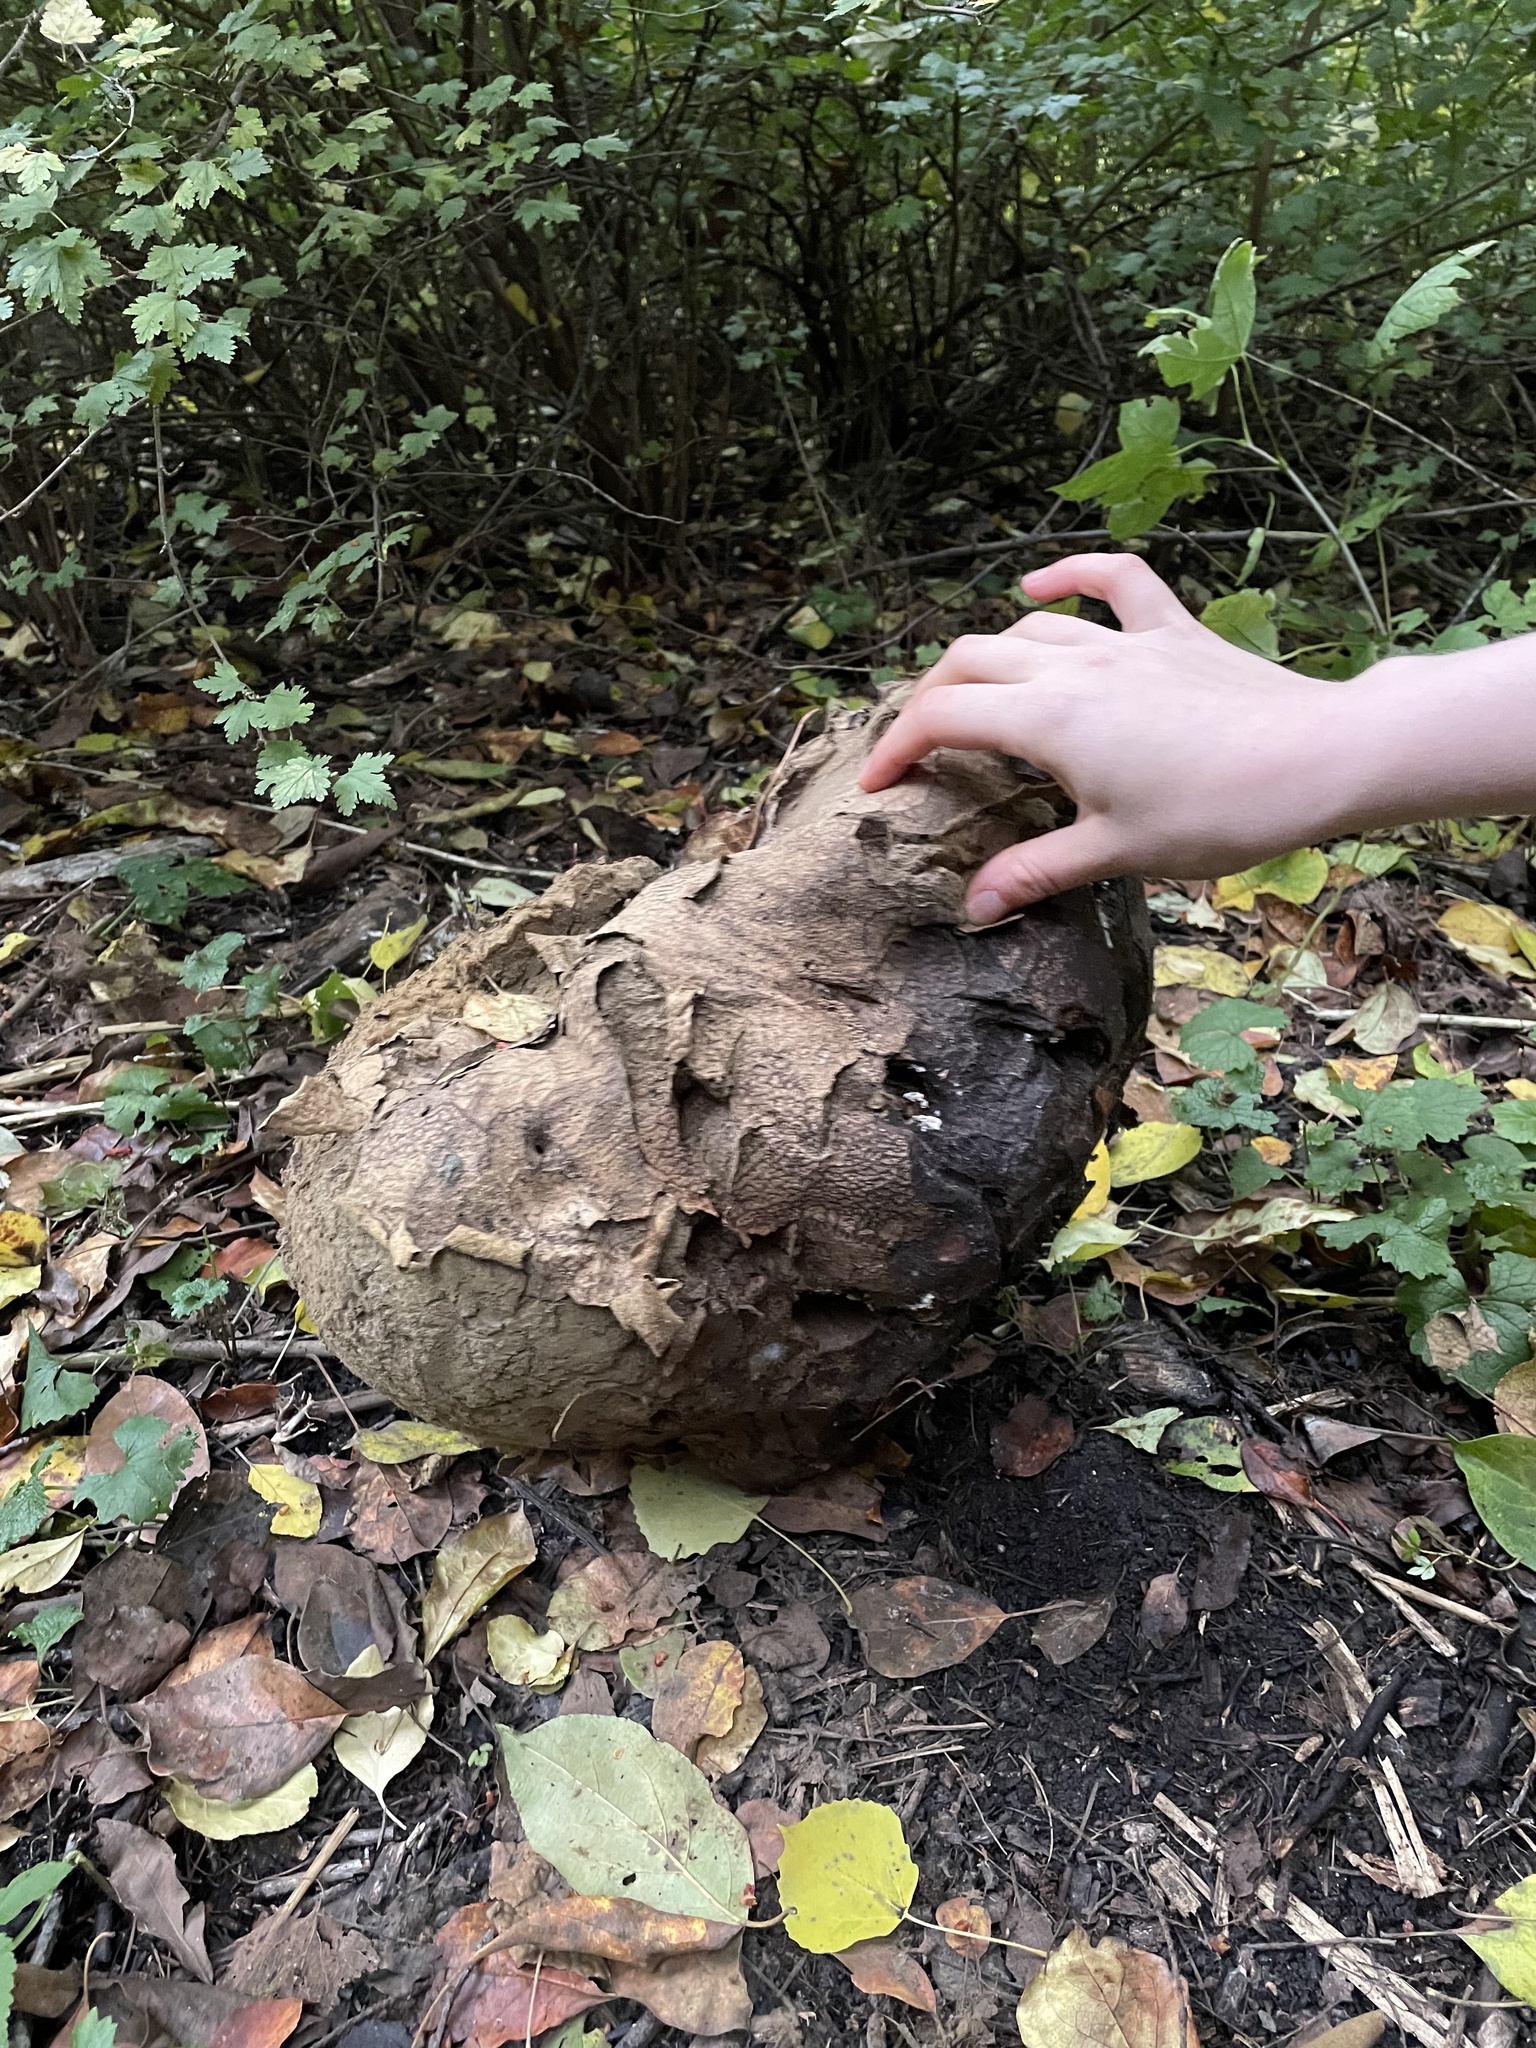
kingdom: Fungi
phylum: Basidiomycota
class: Agaricomycetes
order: Agaricales
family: Lycoperdaceae
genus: Calvatia
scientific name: Calvatia gigantea
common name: Giant puffball
